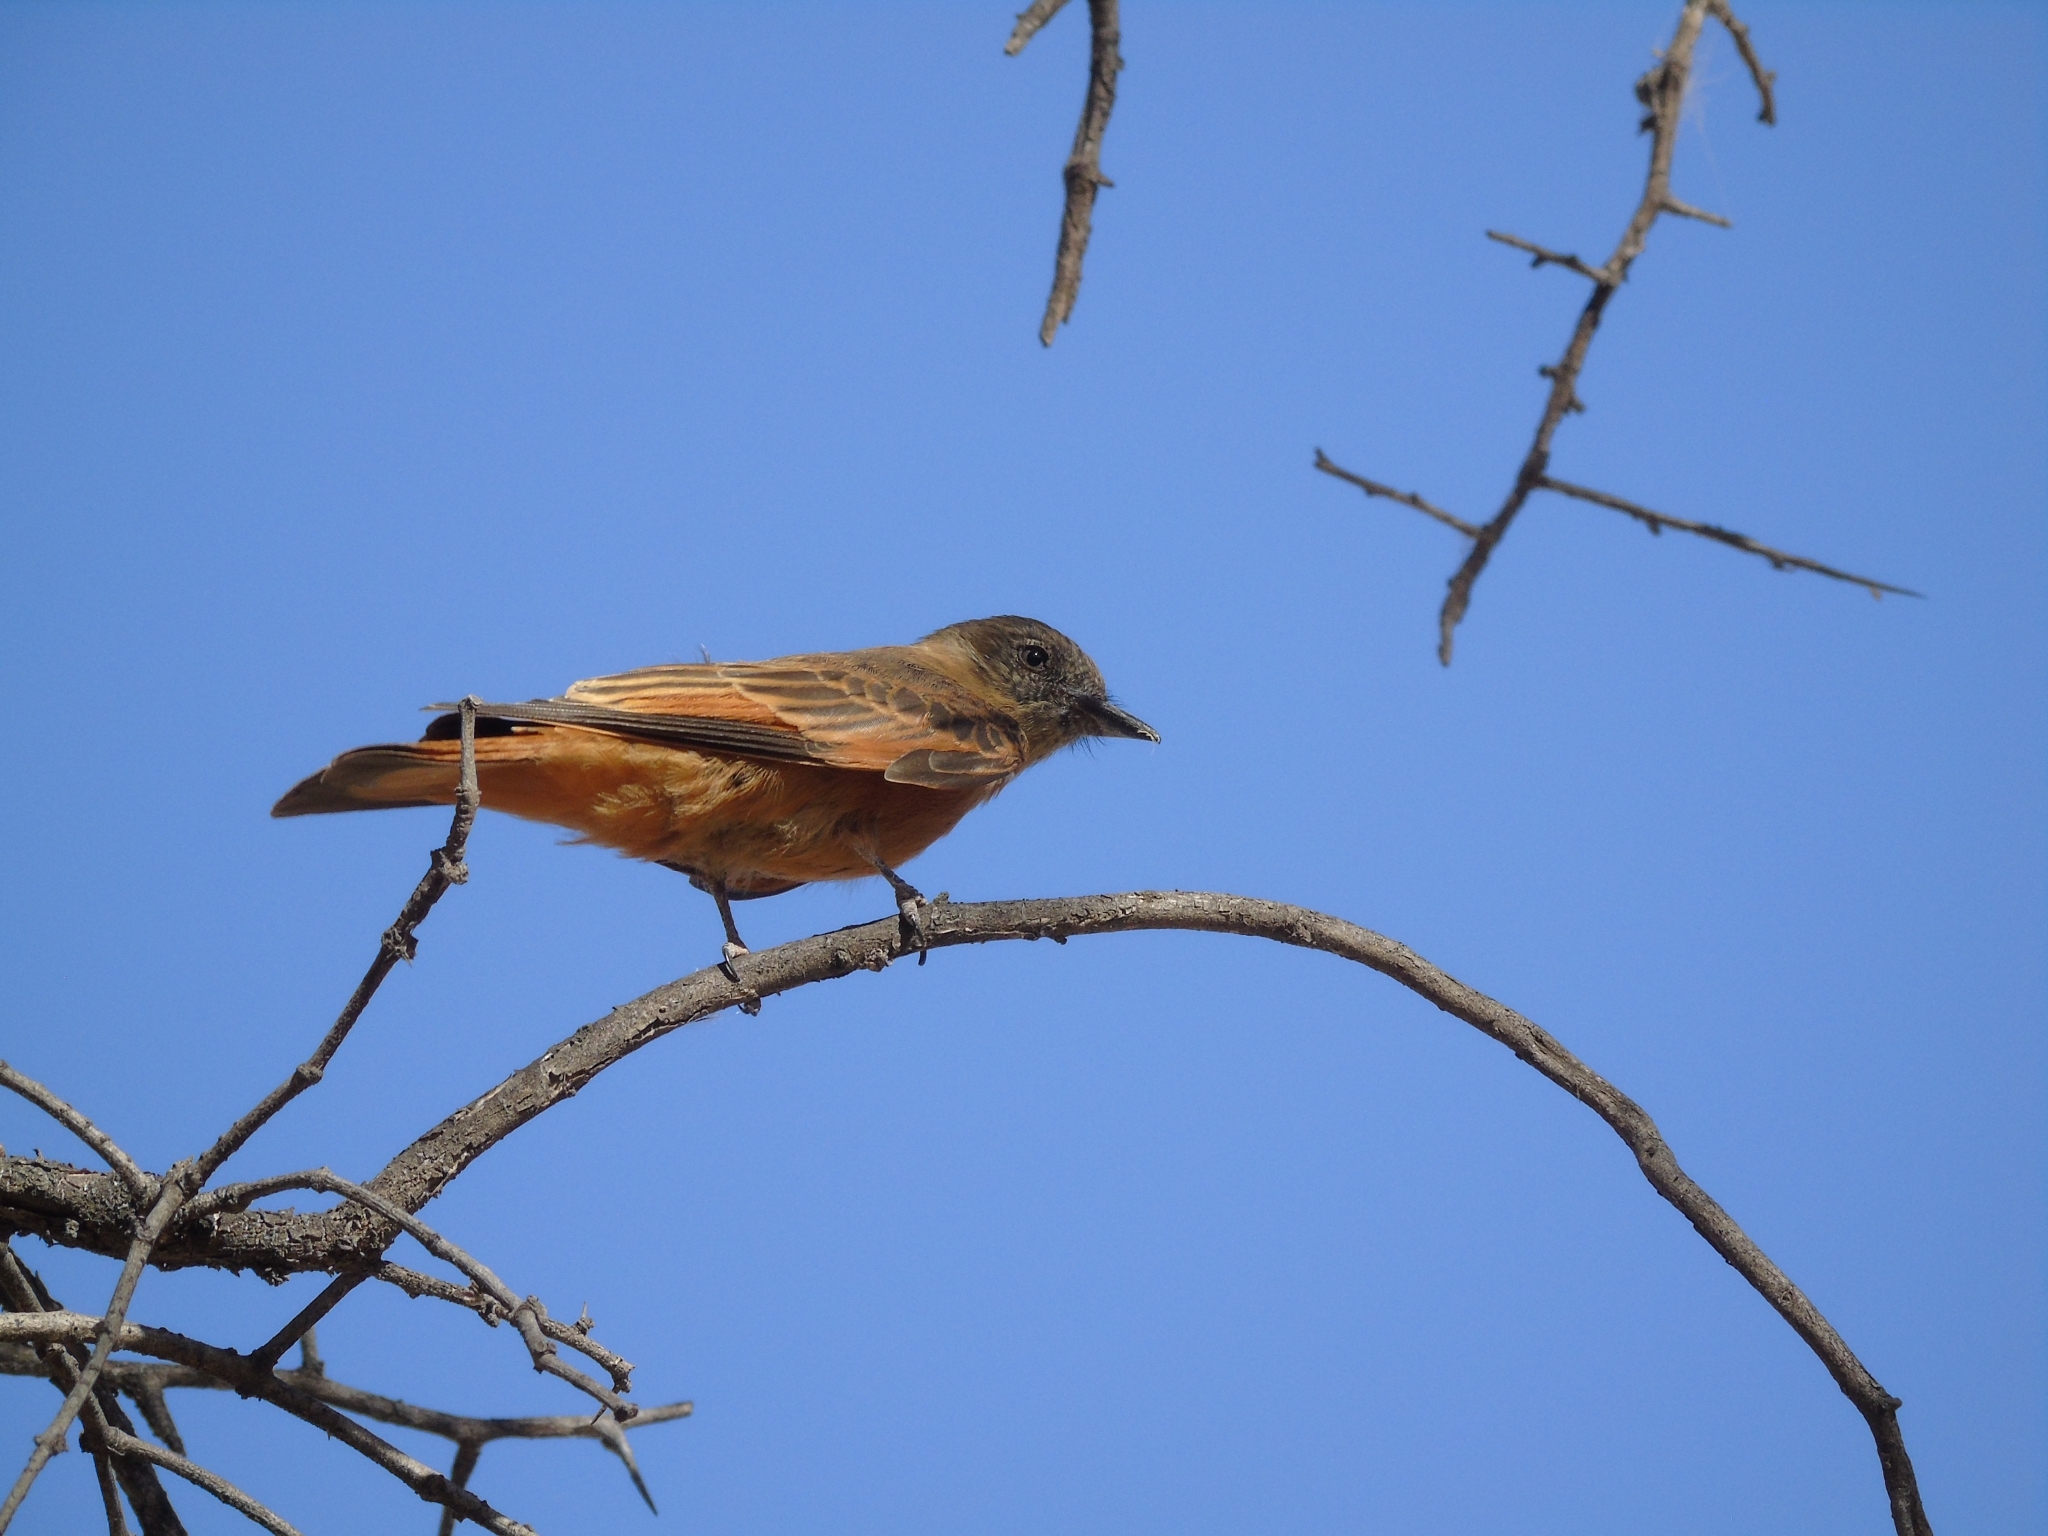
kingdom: Animalia
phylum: Chordata
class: Aves
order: Passeriformes
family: Tyrannidae
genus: Hirundinea
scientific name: Hirundinea ferruginea
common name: Cliff flycatcher
